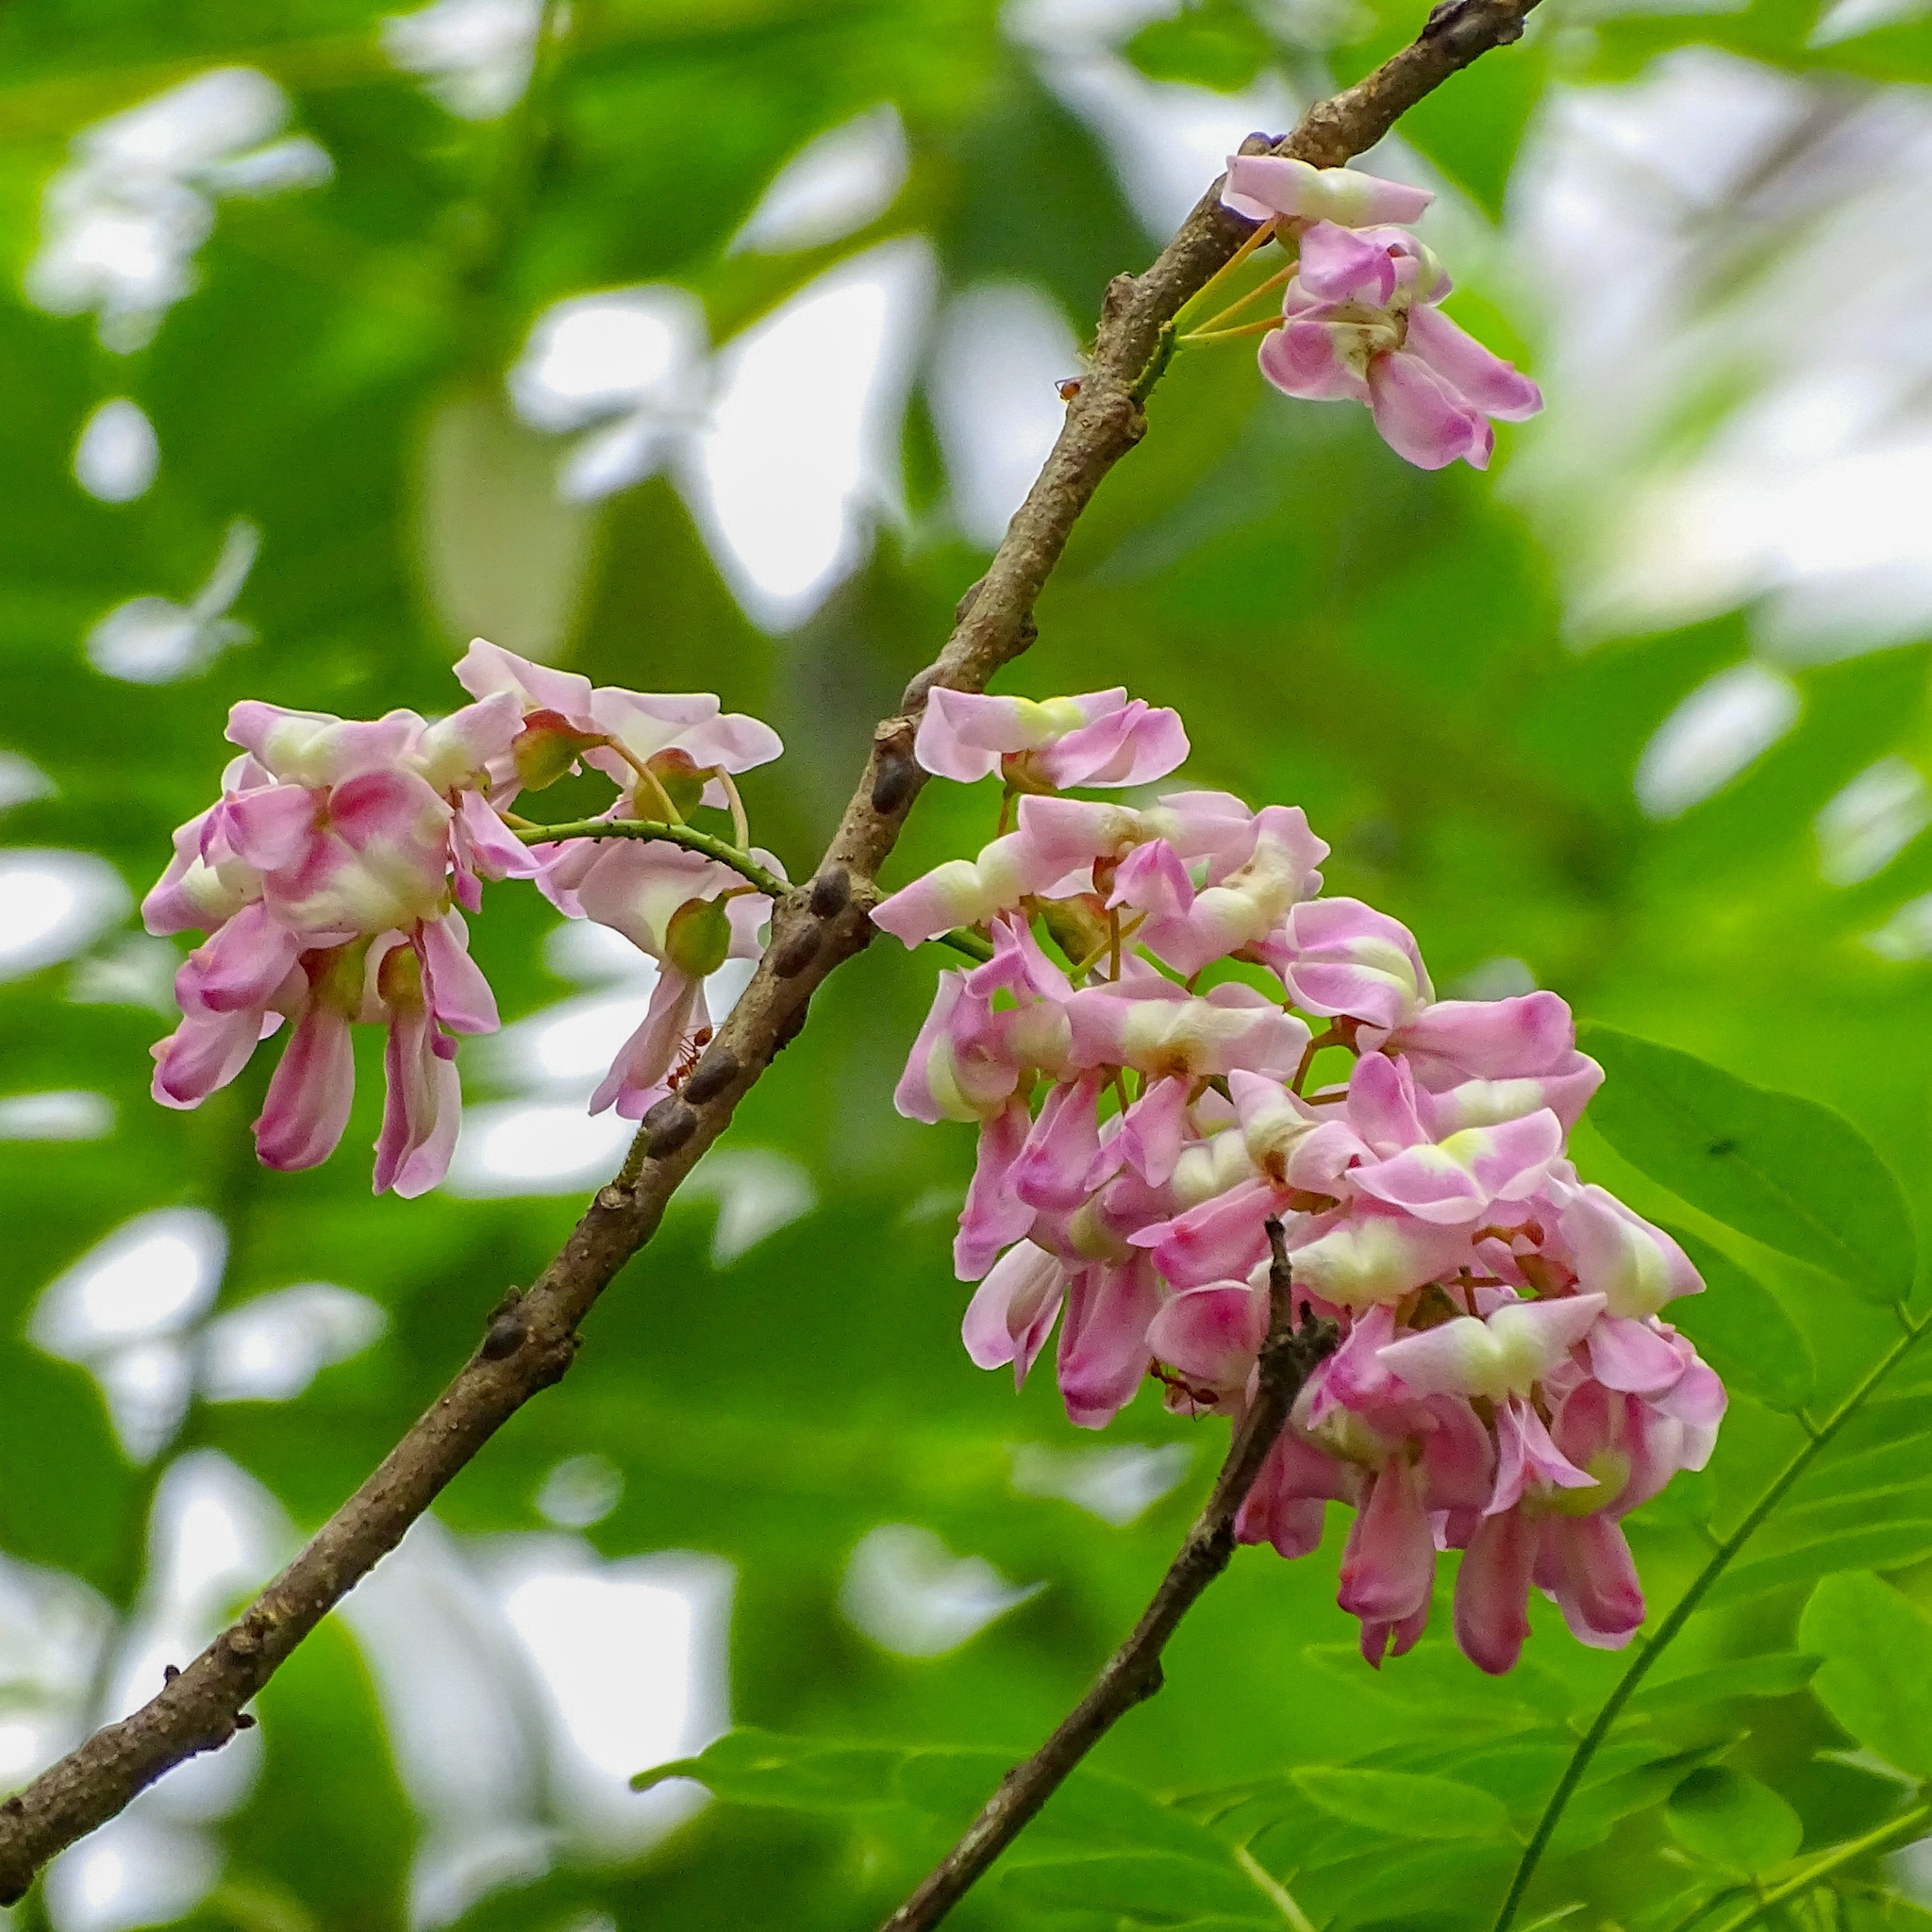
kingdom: Plantae
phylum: Tracheophyta
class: Magnoliopsida
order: Fabales
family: Fabaceae
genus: Gliricidia
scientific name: Gliricidia sepium
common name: Quickstick
